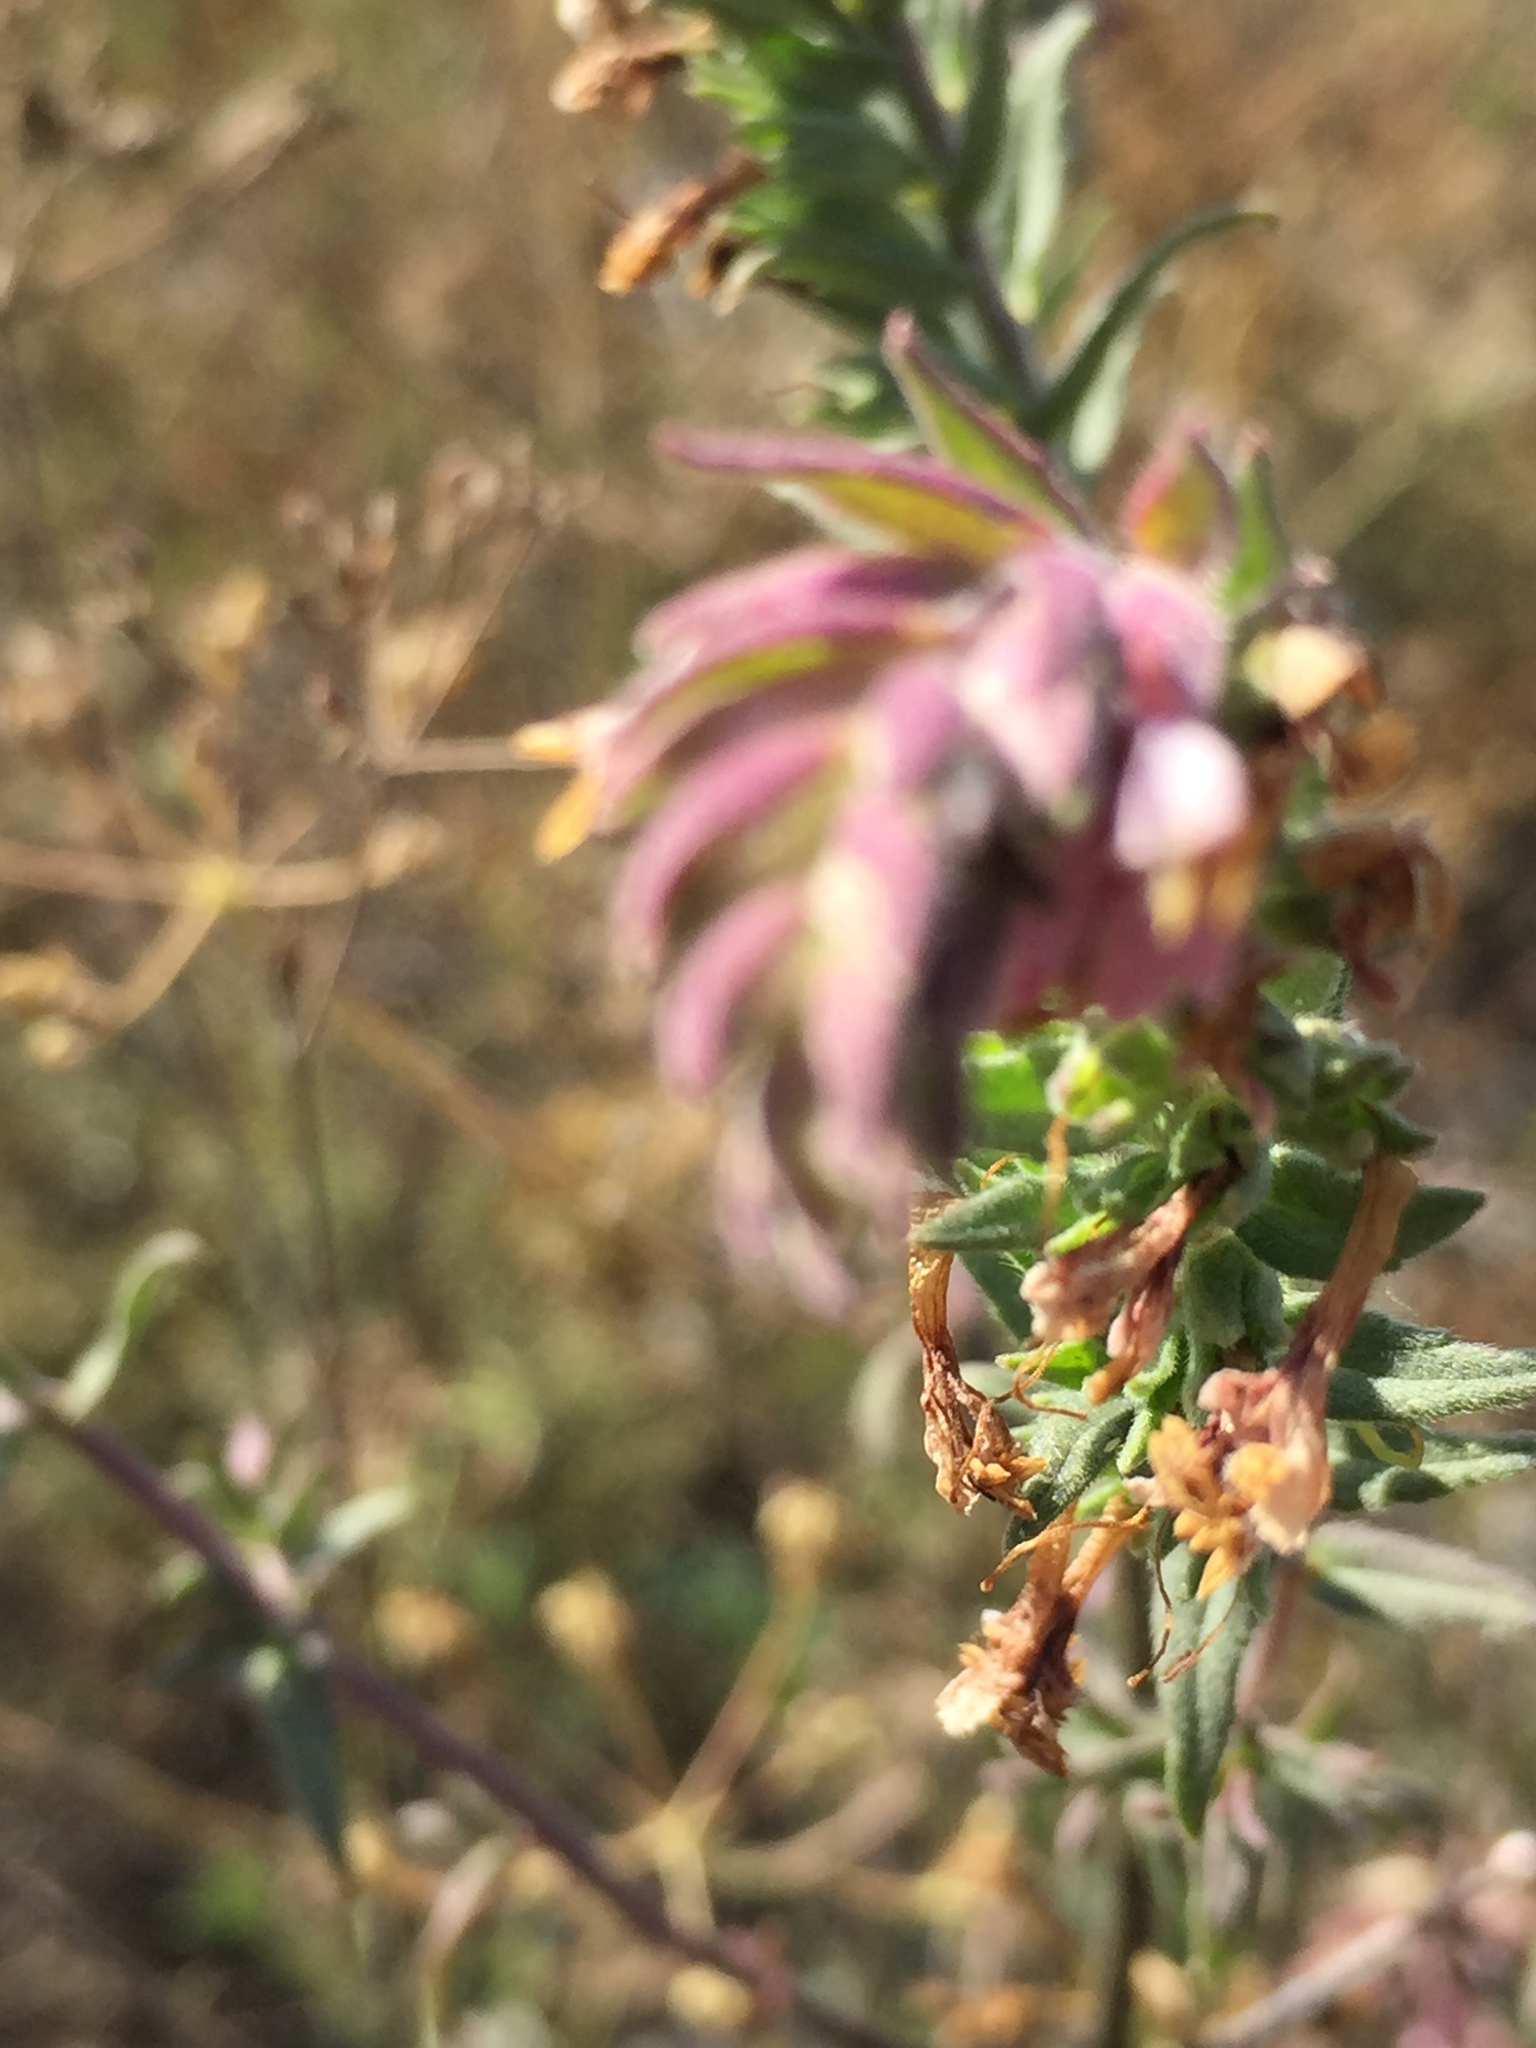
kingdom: Plantae
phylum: Tracheophyta
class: Magnoliopsida
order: Lamiales
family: Orobanchaceae
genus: Odontites
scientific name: Odontites vulgaris
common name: Broomrape
